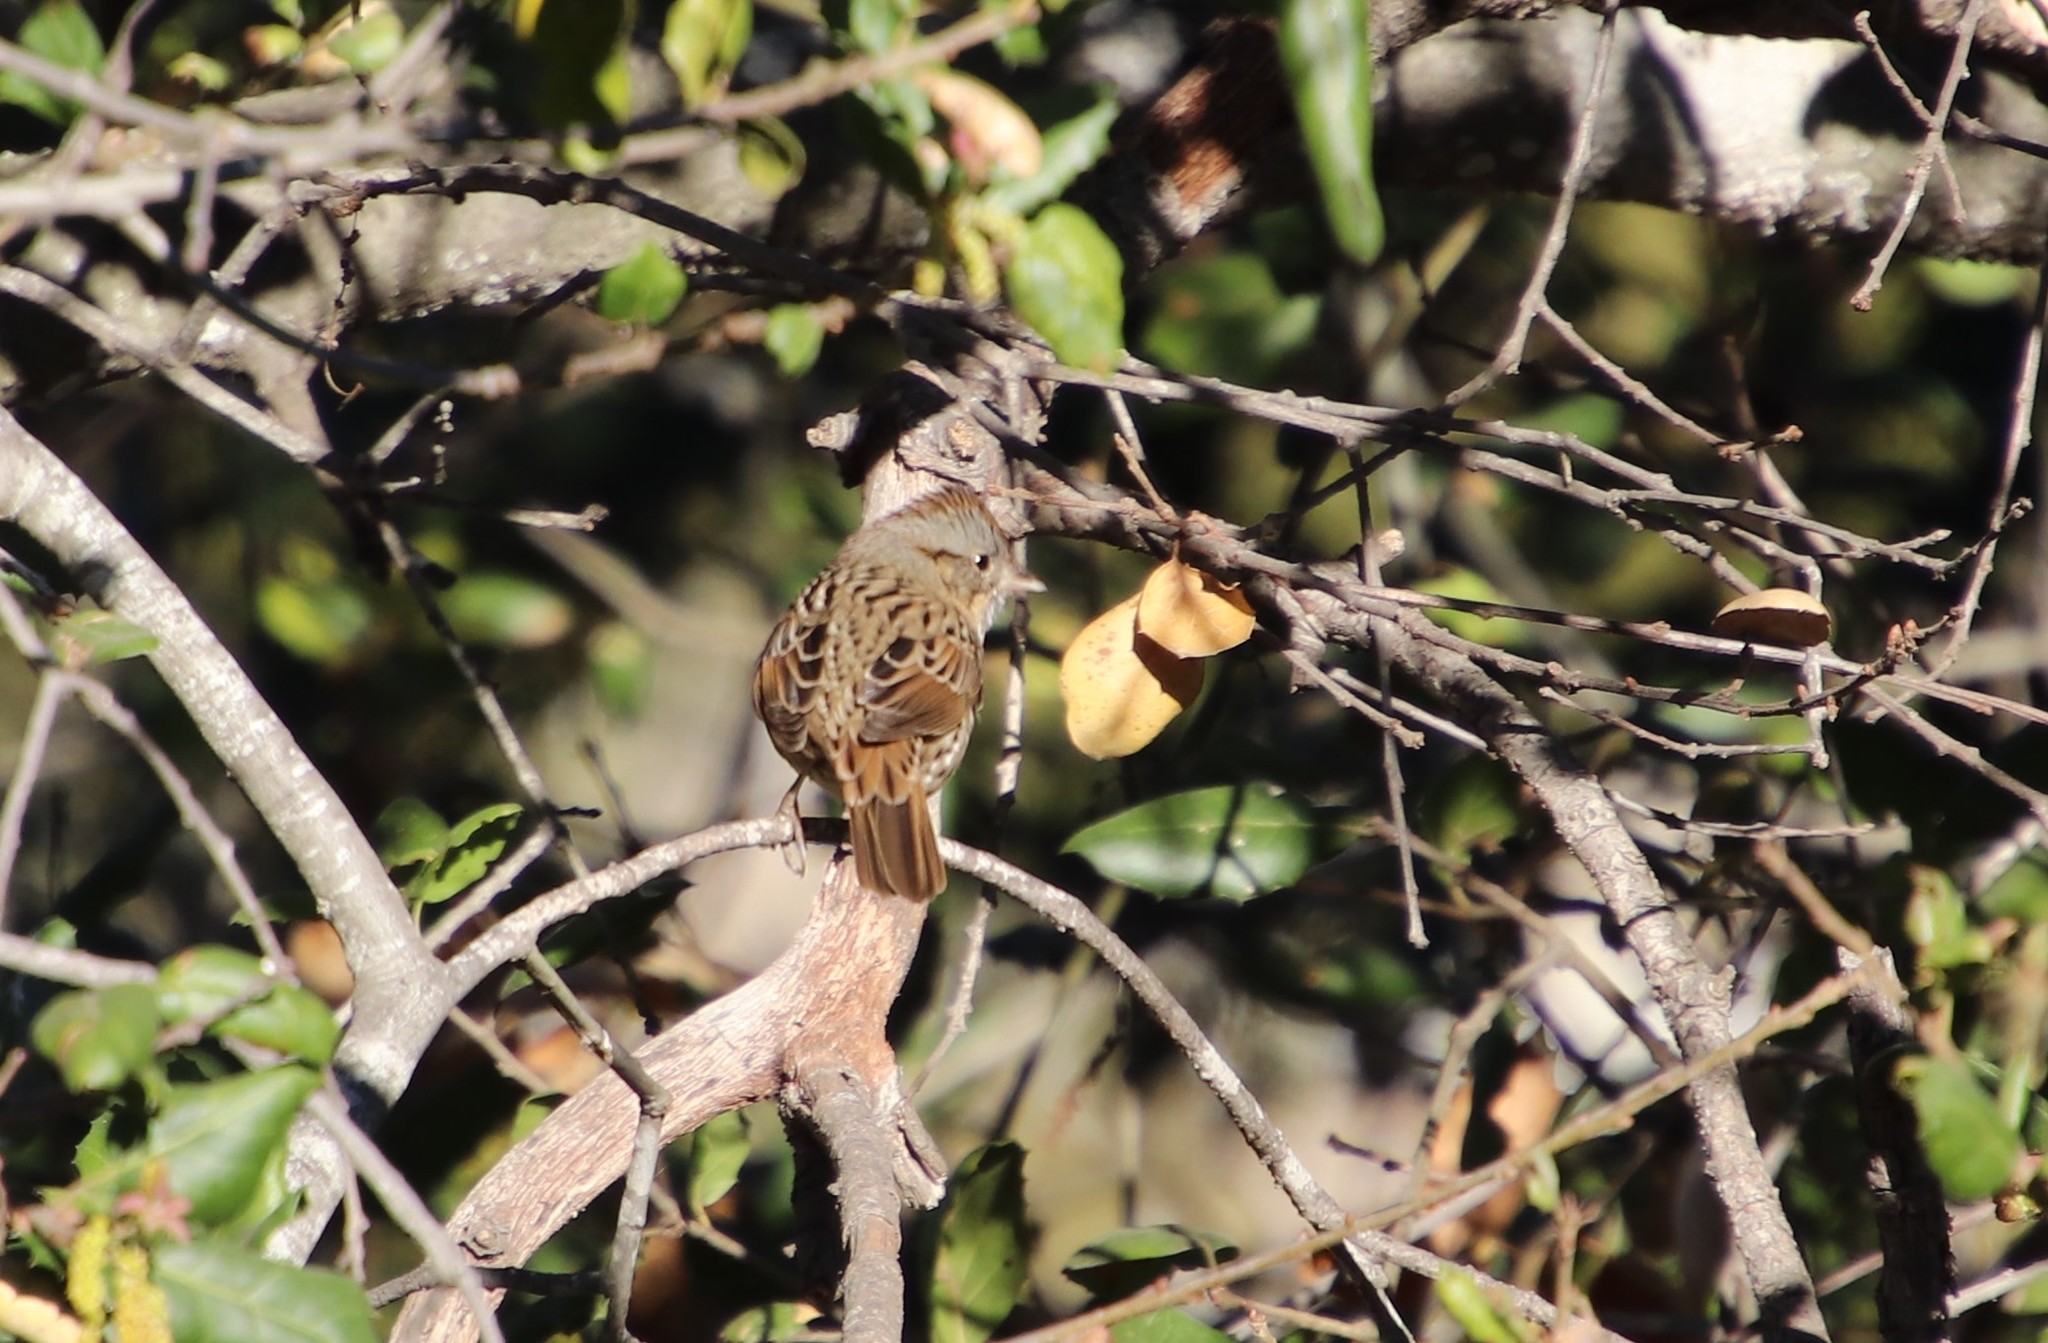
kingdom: Animalia
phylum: Chordata
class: Aves
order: Passeriformes
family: Passerellidae
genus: Melospiza
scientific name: Melospiza lincolnii
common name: Lincoln's sparrow
